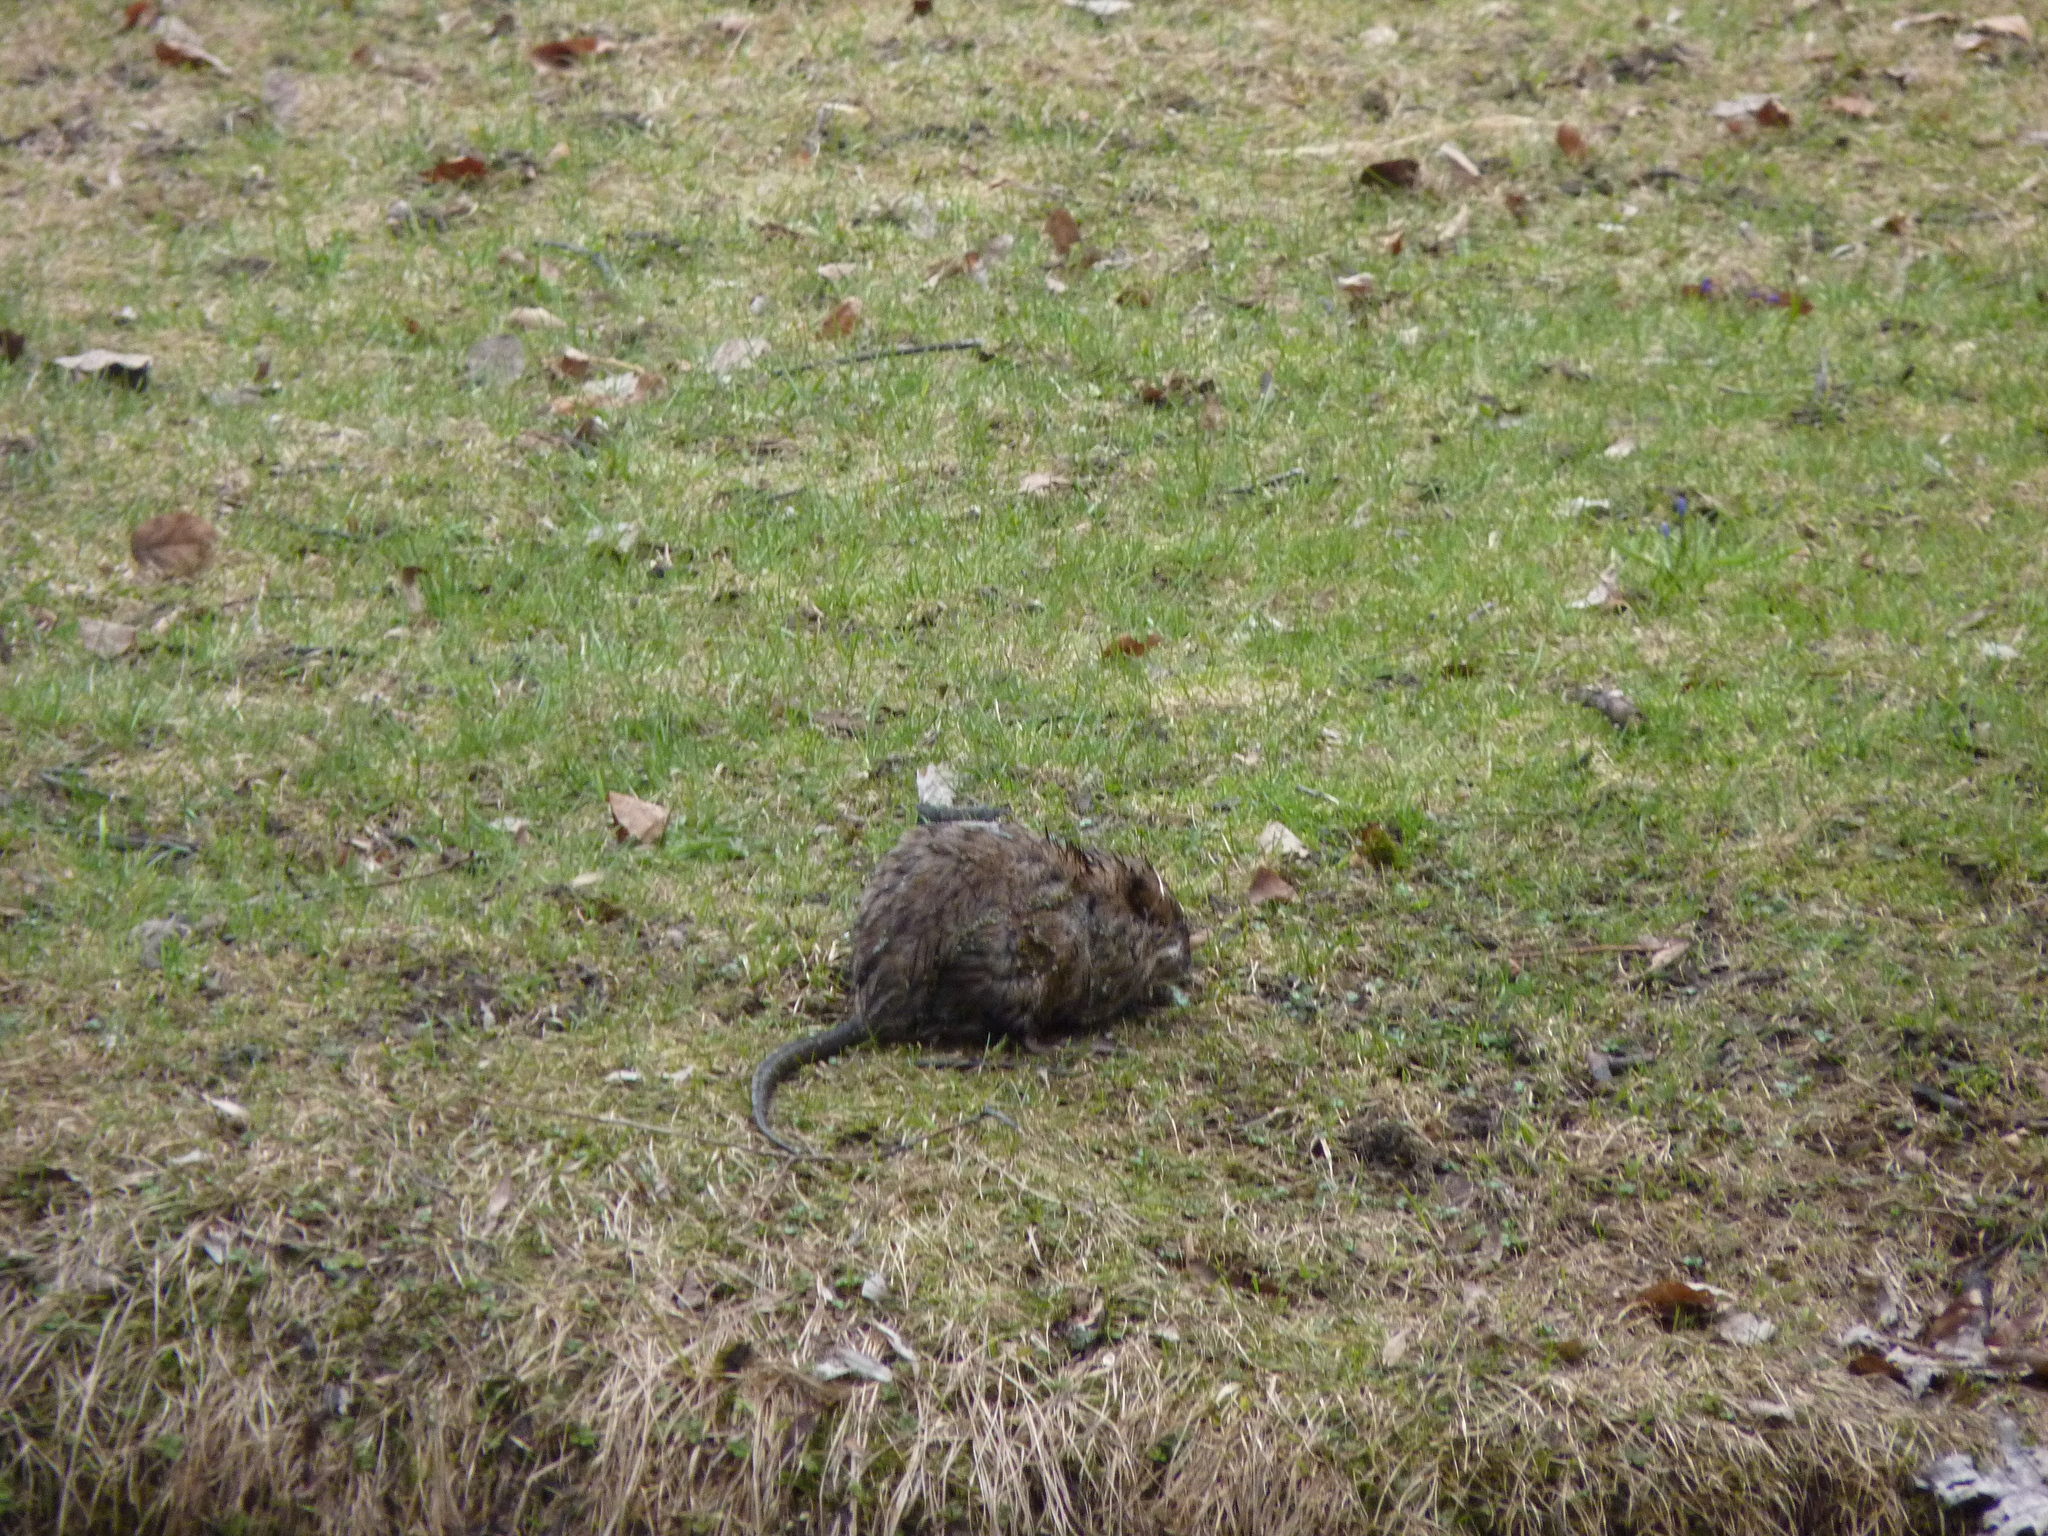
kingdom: Animalia
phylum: Chordata
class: Mammalia
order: Rodentia
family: Cricetidae
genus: Ondatra
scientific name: Ondatra zibethicus
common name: Muskrat
